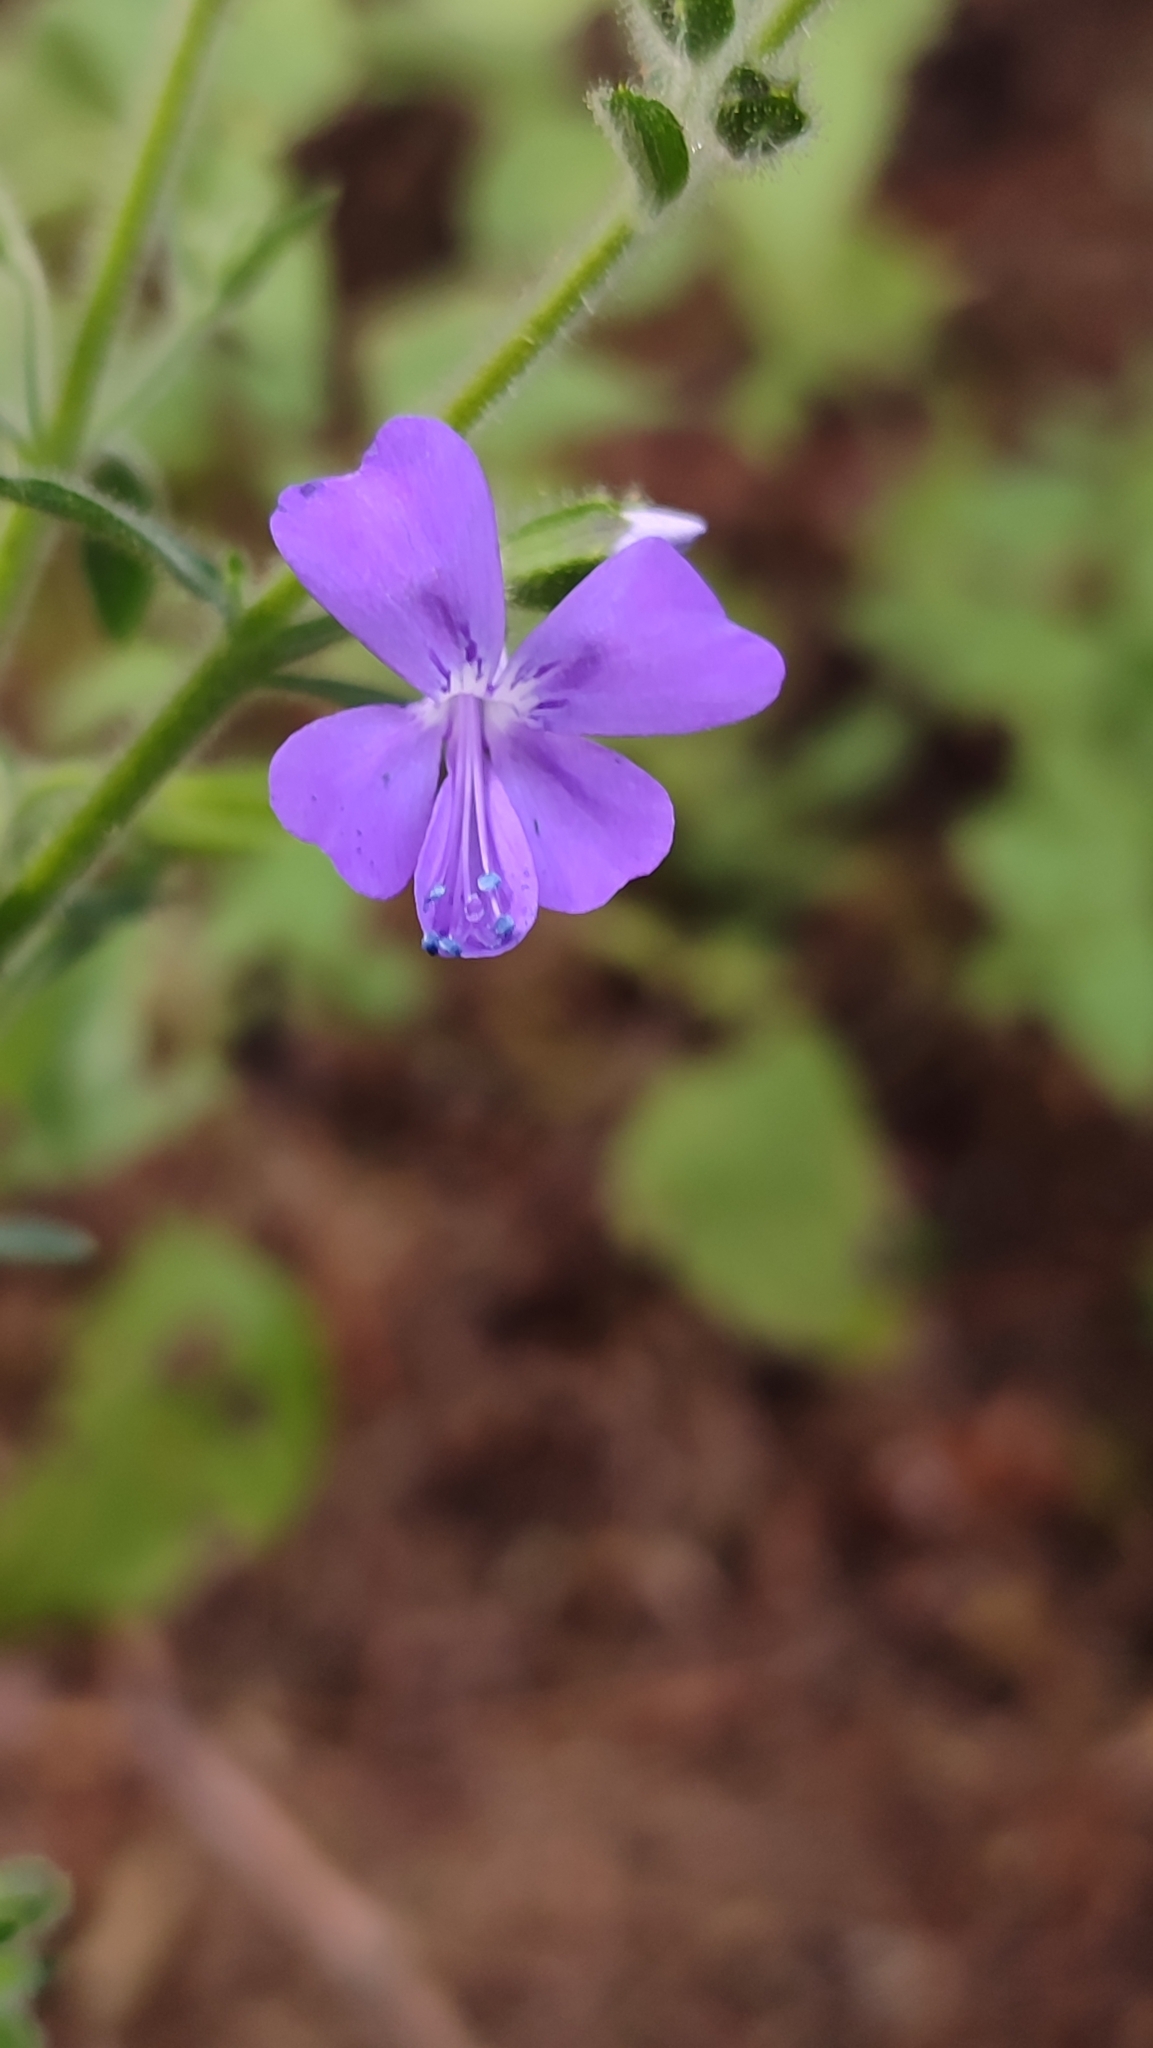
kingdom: Plantae
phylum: Tracheophyta
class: Magnoliopsida
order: Ericales
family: Polemoniaceae
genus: Bonplandia
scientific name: Bonplandia geminiflora
